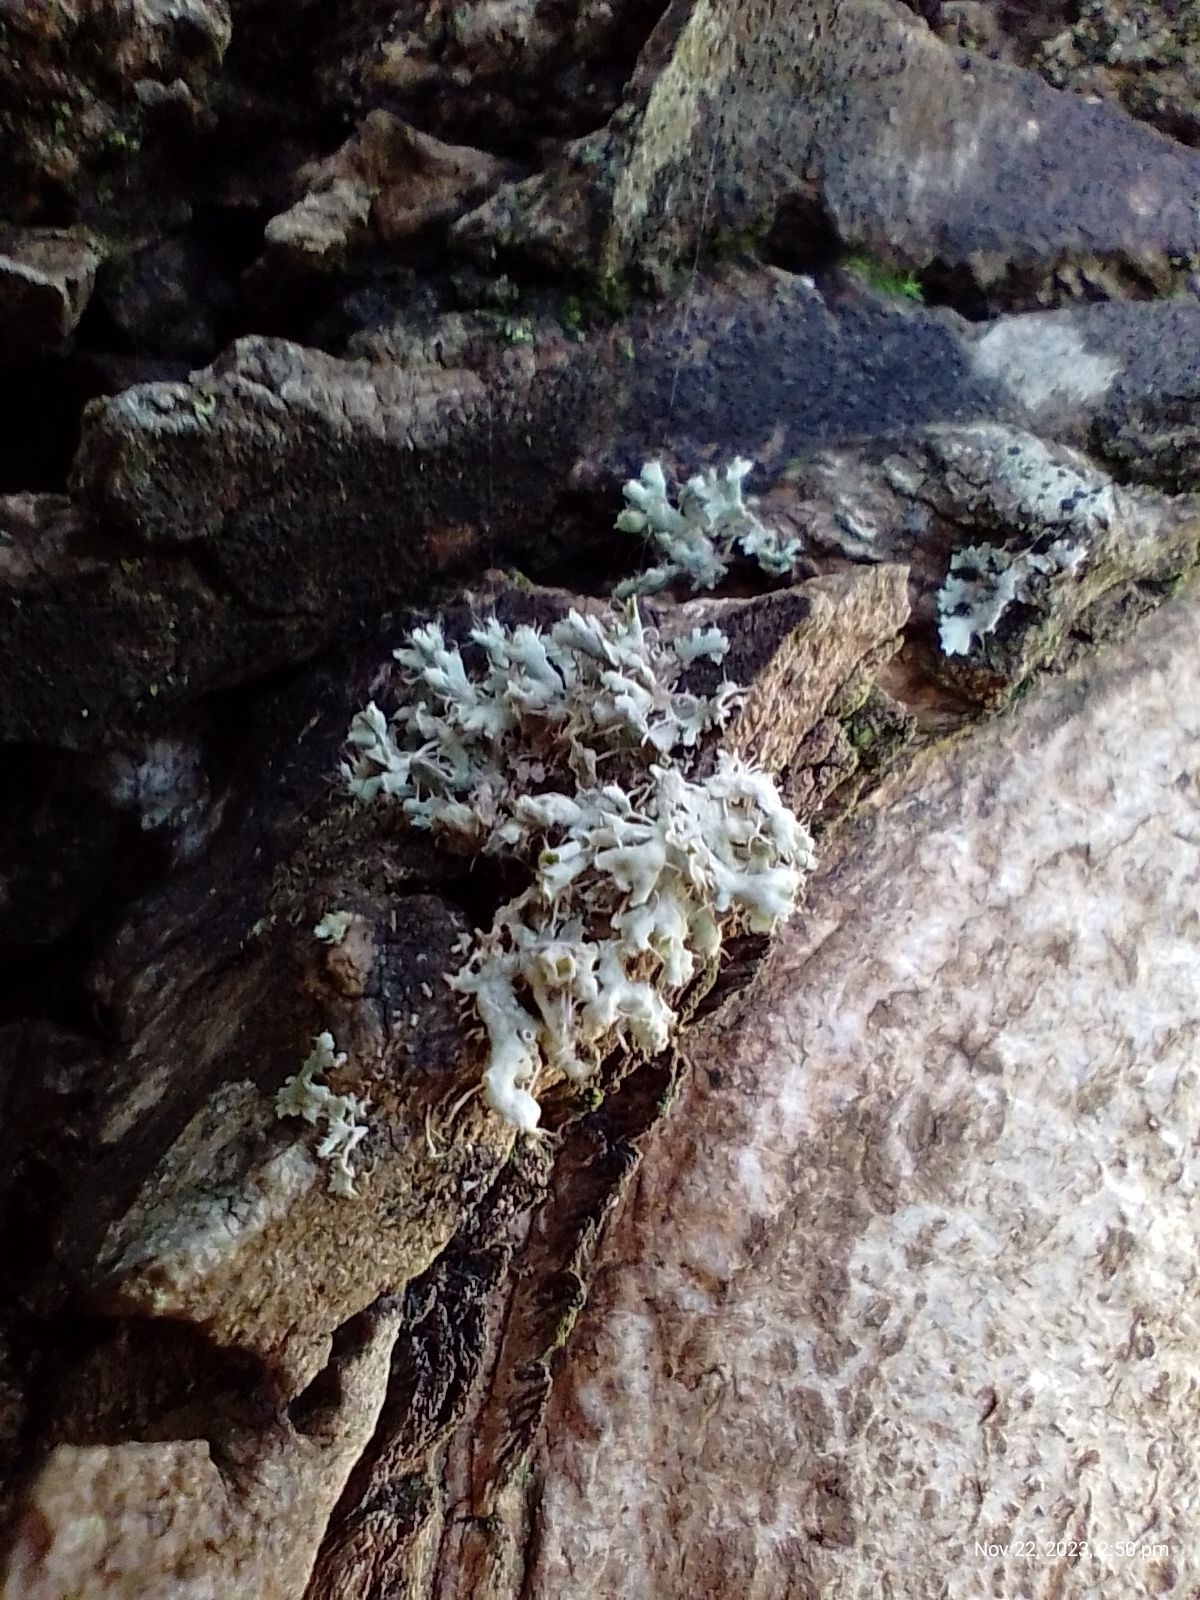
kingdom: Fungi
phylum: Ascomycota
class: Lecanoromycetes
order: Caliciales
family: Physciaceae
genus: Physcia
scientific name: Physcia adscendens
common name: Hooded rosette lichen
